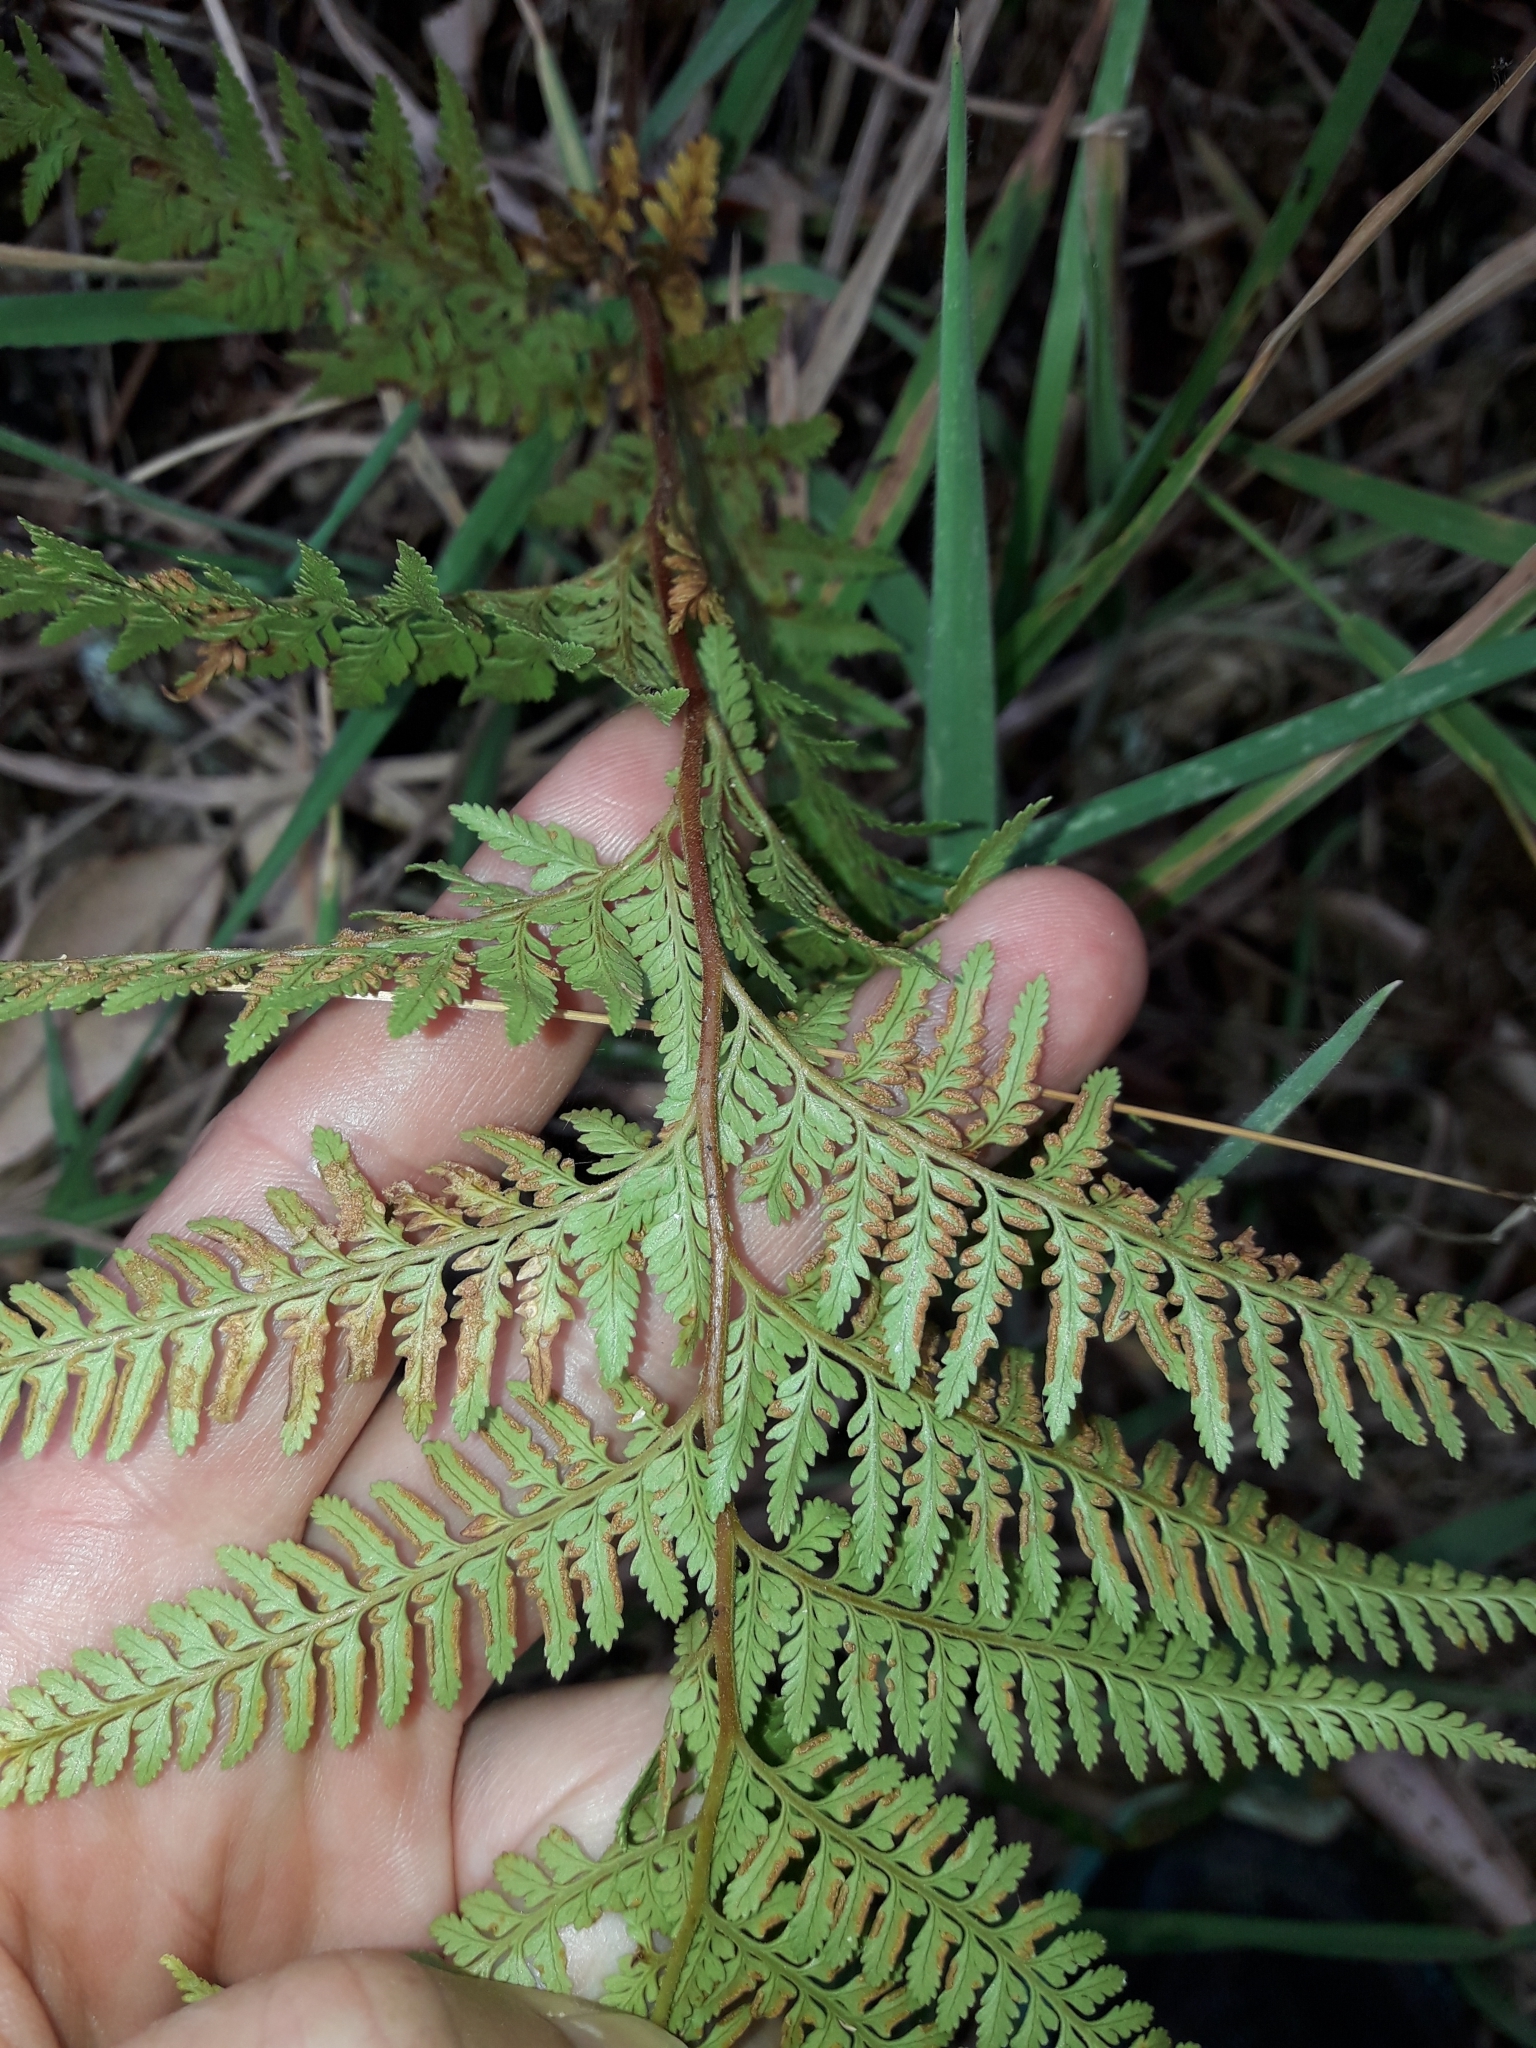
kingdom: Plantae
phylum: Tracheophyta
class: Polypodiopsida
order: Polypodiales
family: Dennstaedtiaceae
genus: Paesia
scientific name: Paesia scaberula
